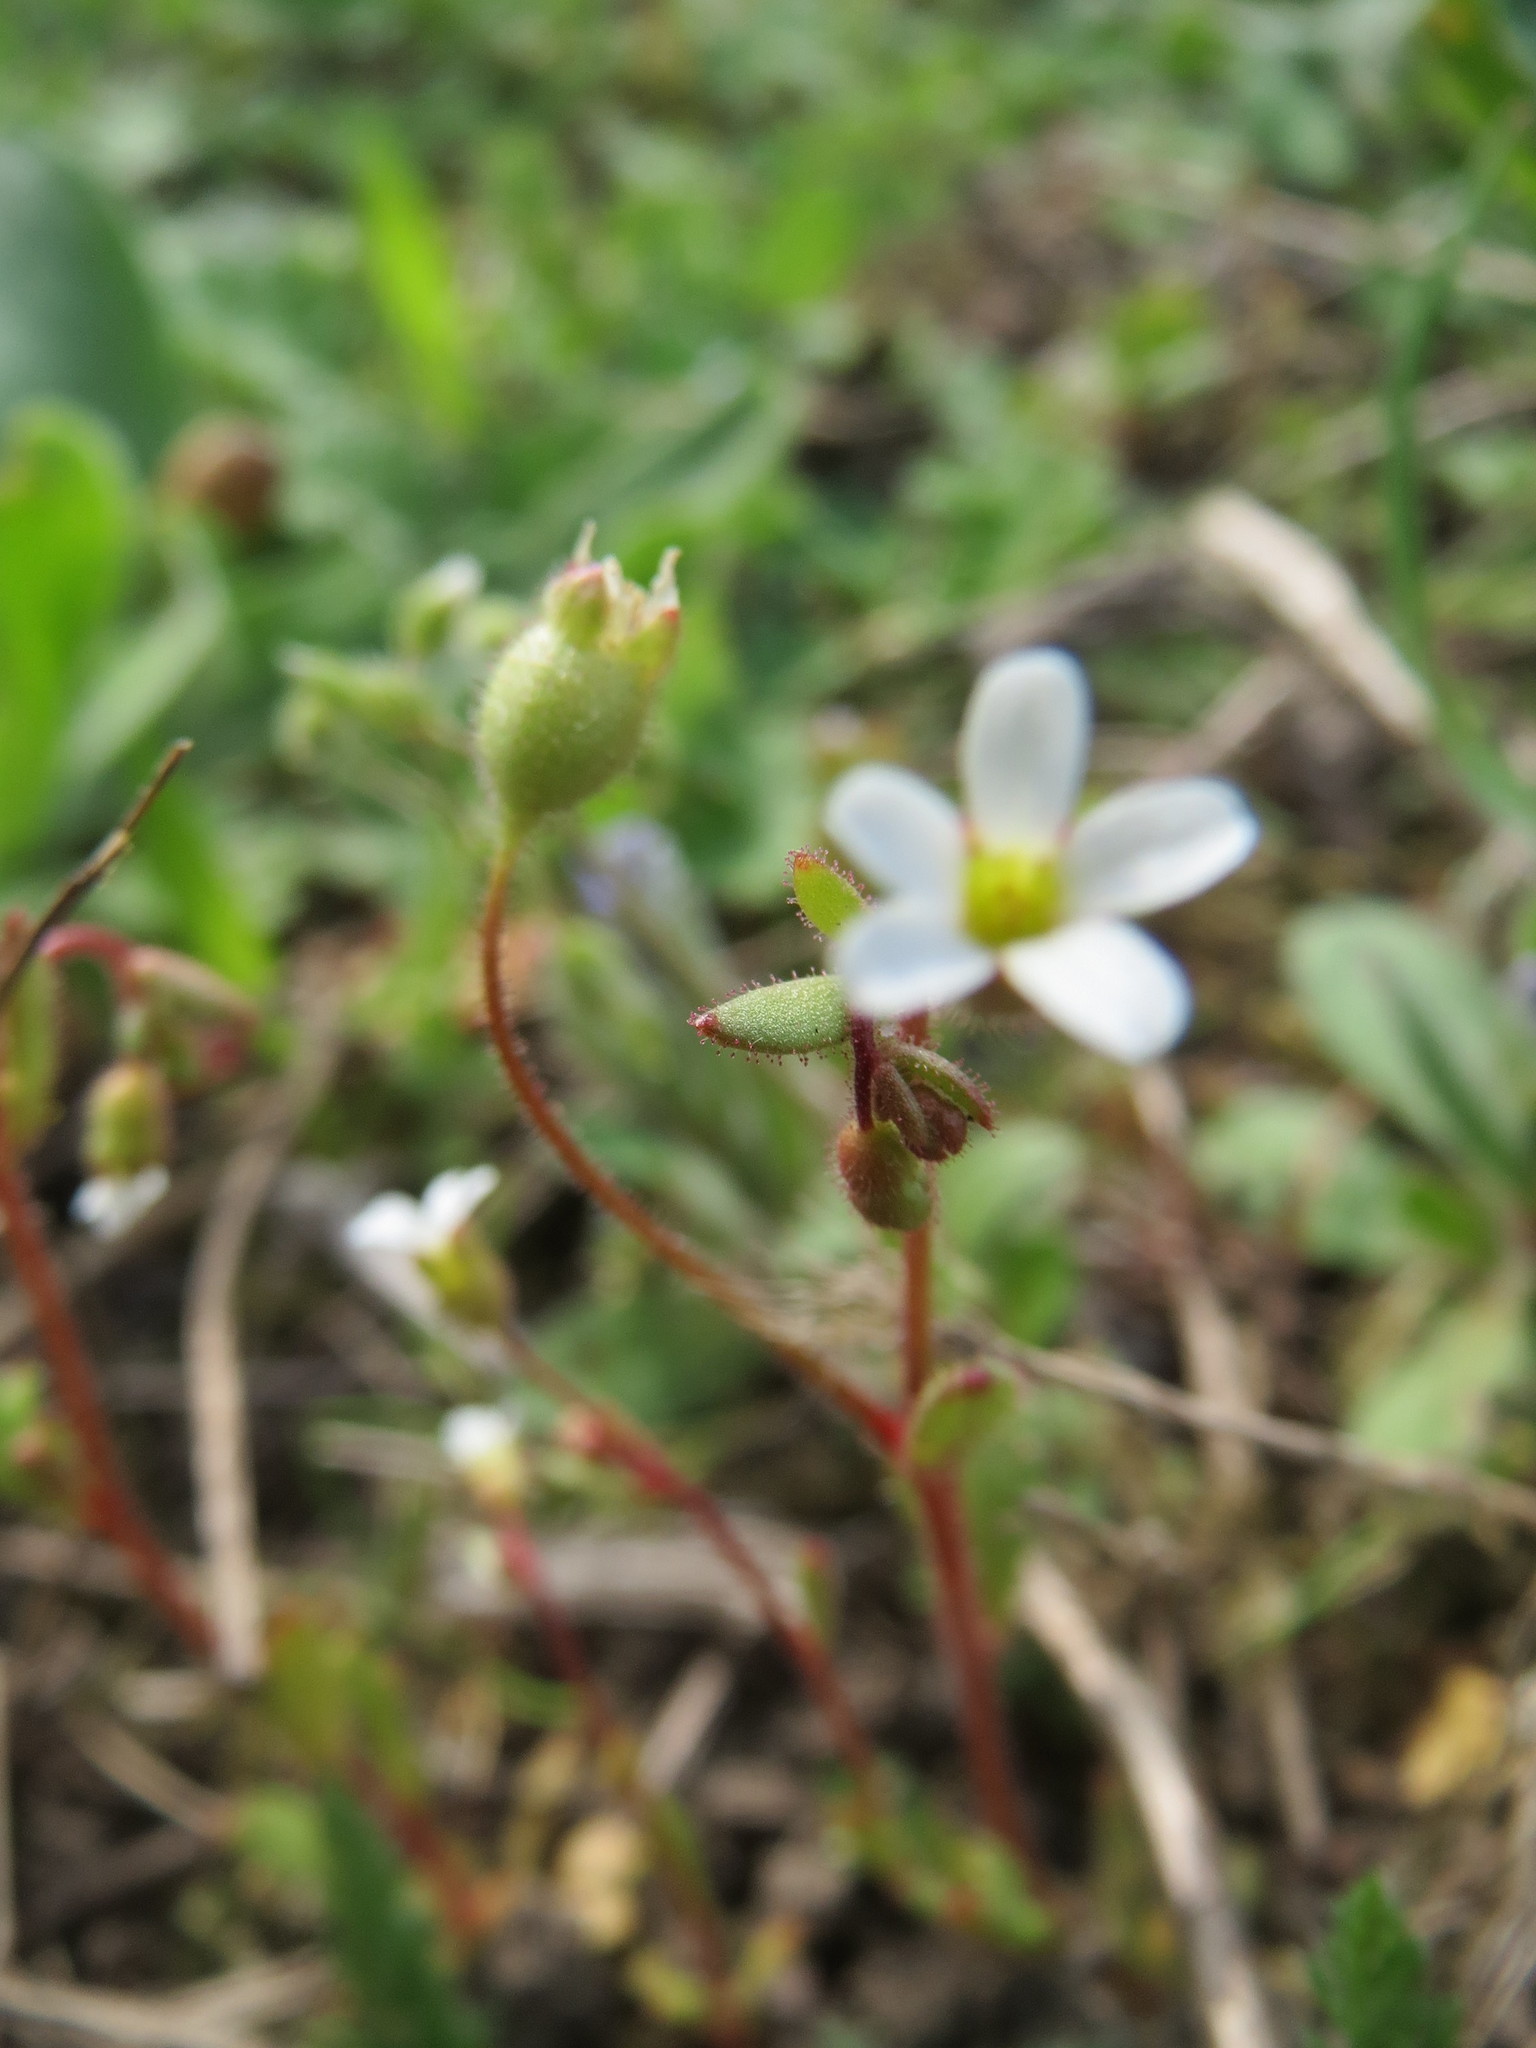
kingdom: Plantae
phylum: Tracheophyta
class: Magnoliopsida
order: Saxifragales
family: Saxifragaceae
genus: Saxifraga
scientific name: Saxifraga tridactylites
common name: Rue-leaved saxifrage
